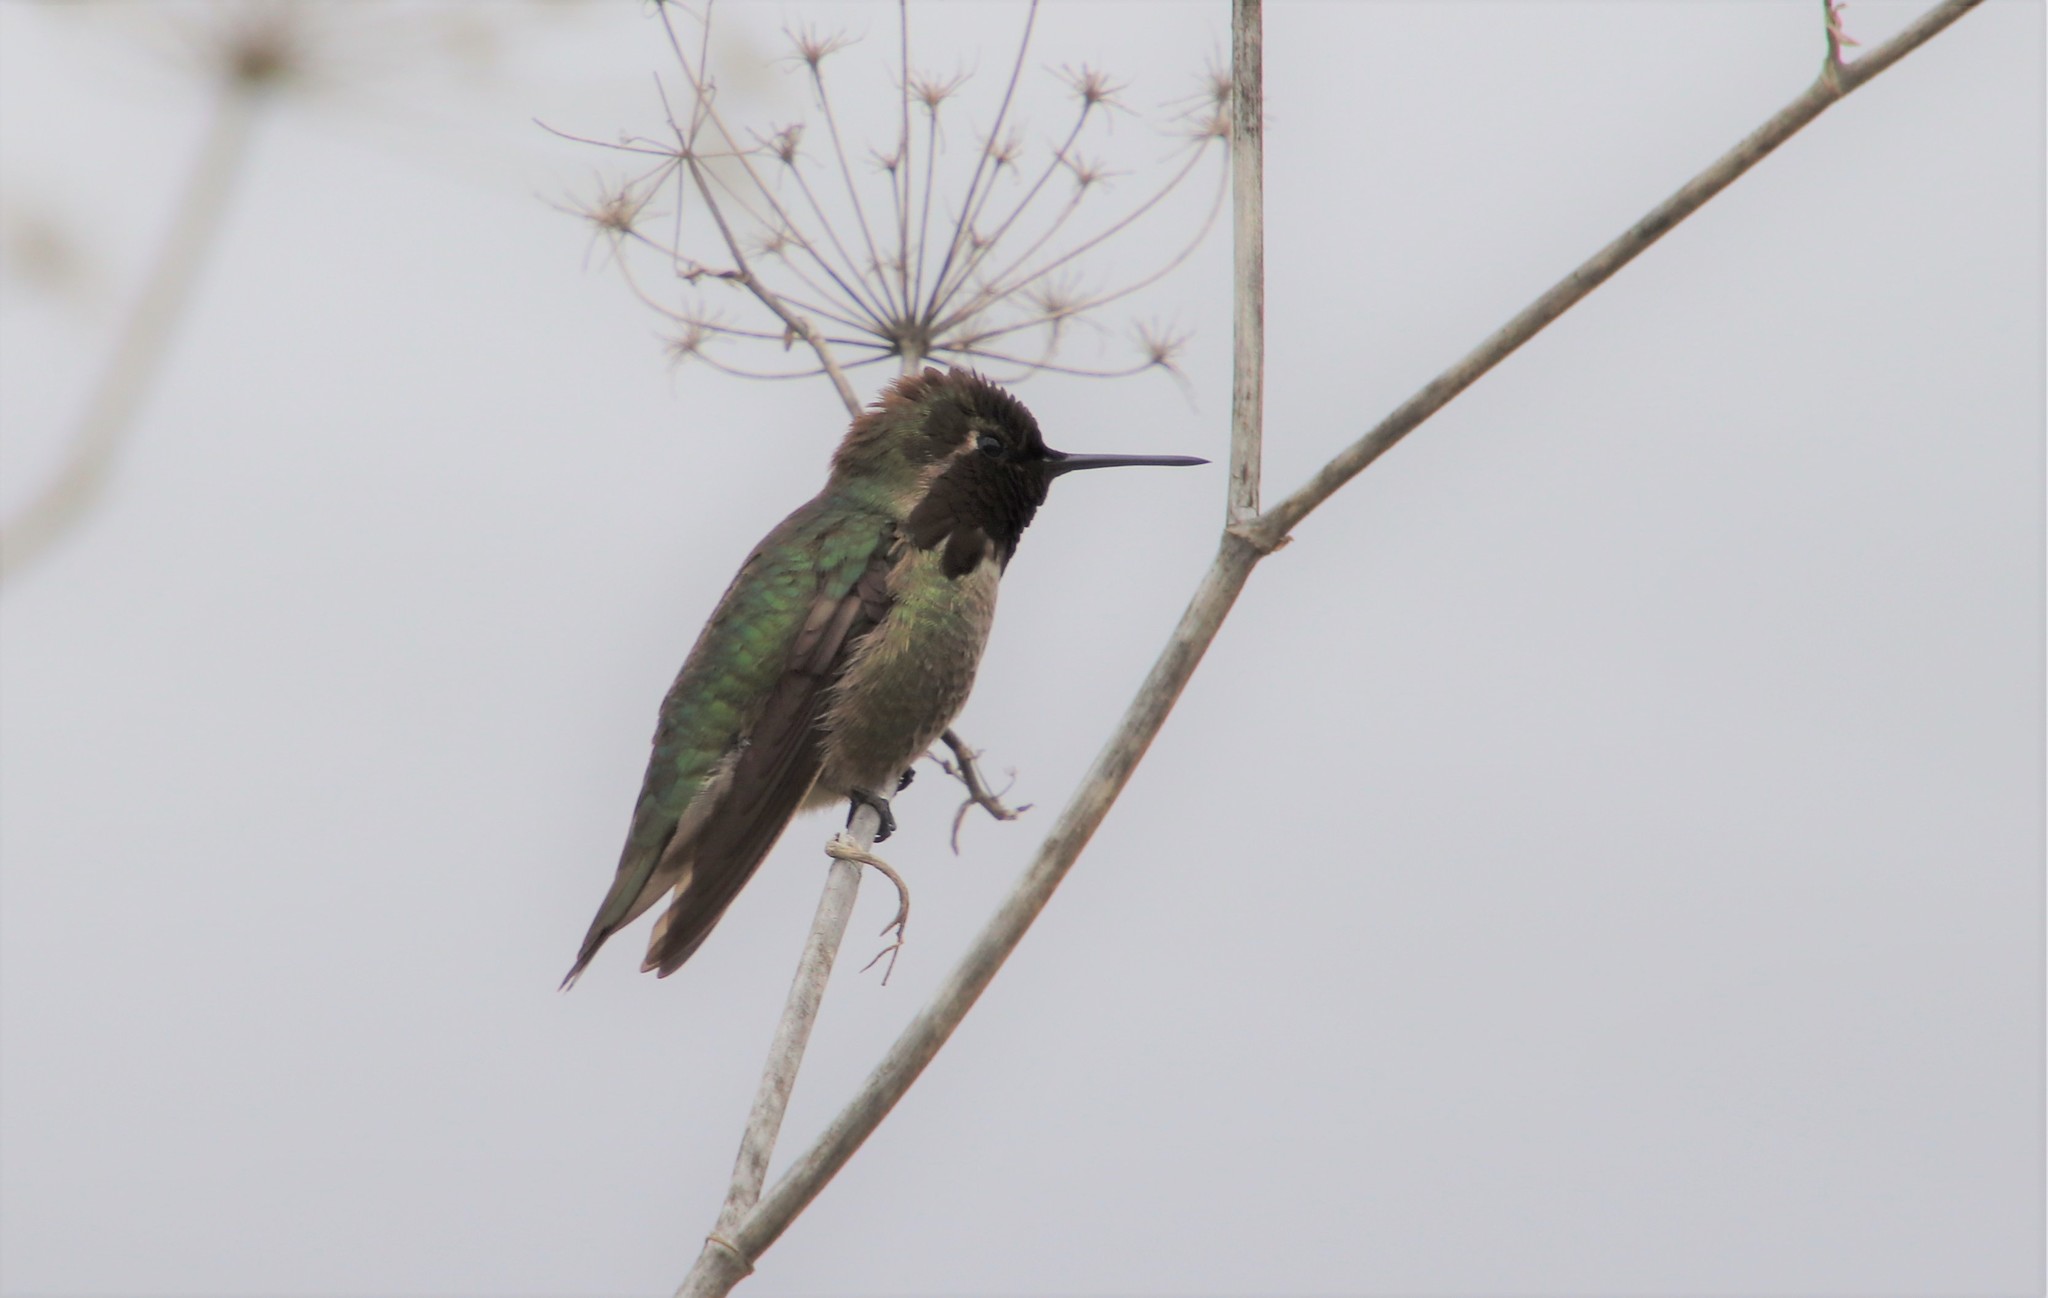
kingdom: Animalia
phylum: Chordata
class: Aves
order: Apodiformes
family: Trochilidae
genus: Calypte
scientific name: Calypte anna
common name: Anna's hummingbird
